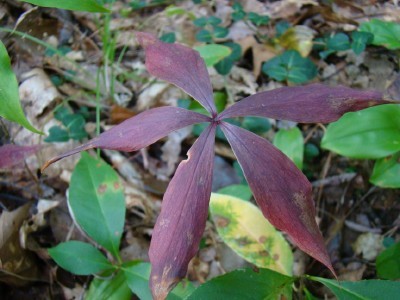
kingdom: Plantae
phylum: Tracheophyta
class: Liliopsida
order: Liliales
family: Liliaceae
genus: Medeola
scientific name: Medeola virginiana
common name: Indian cucumber-root
